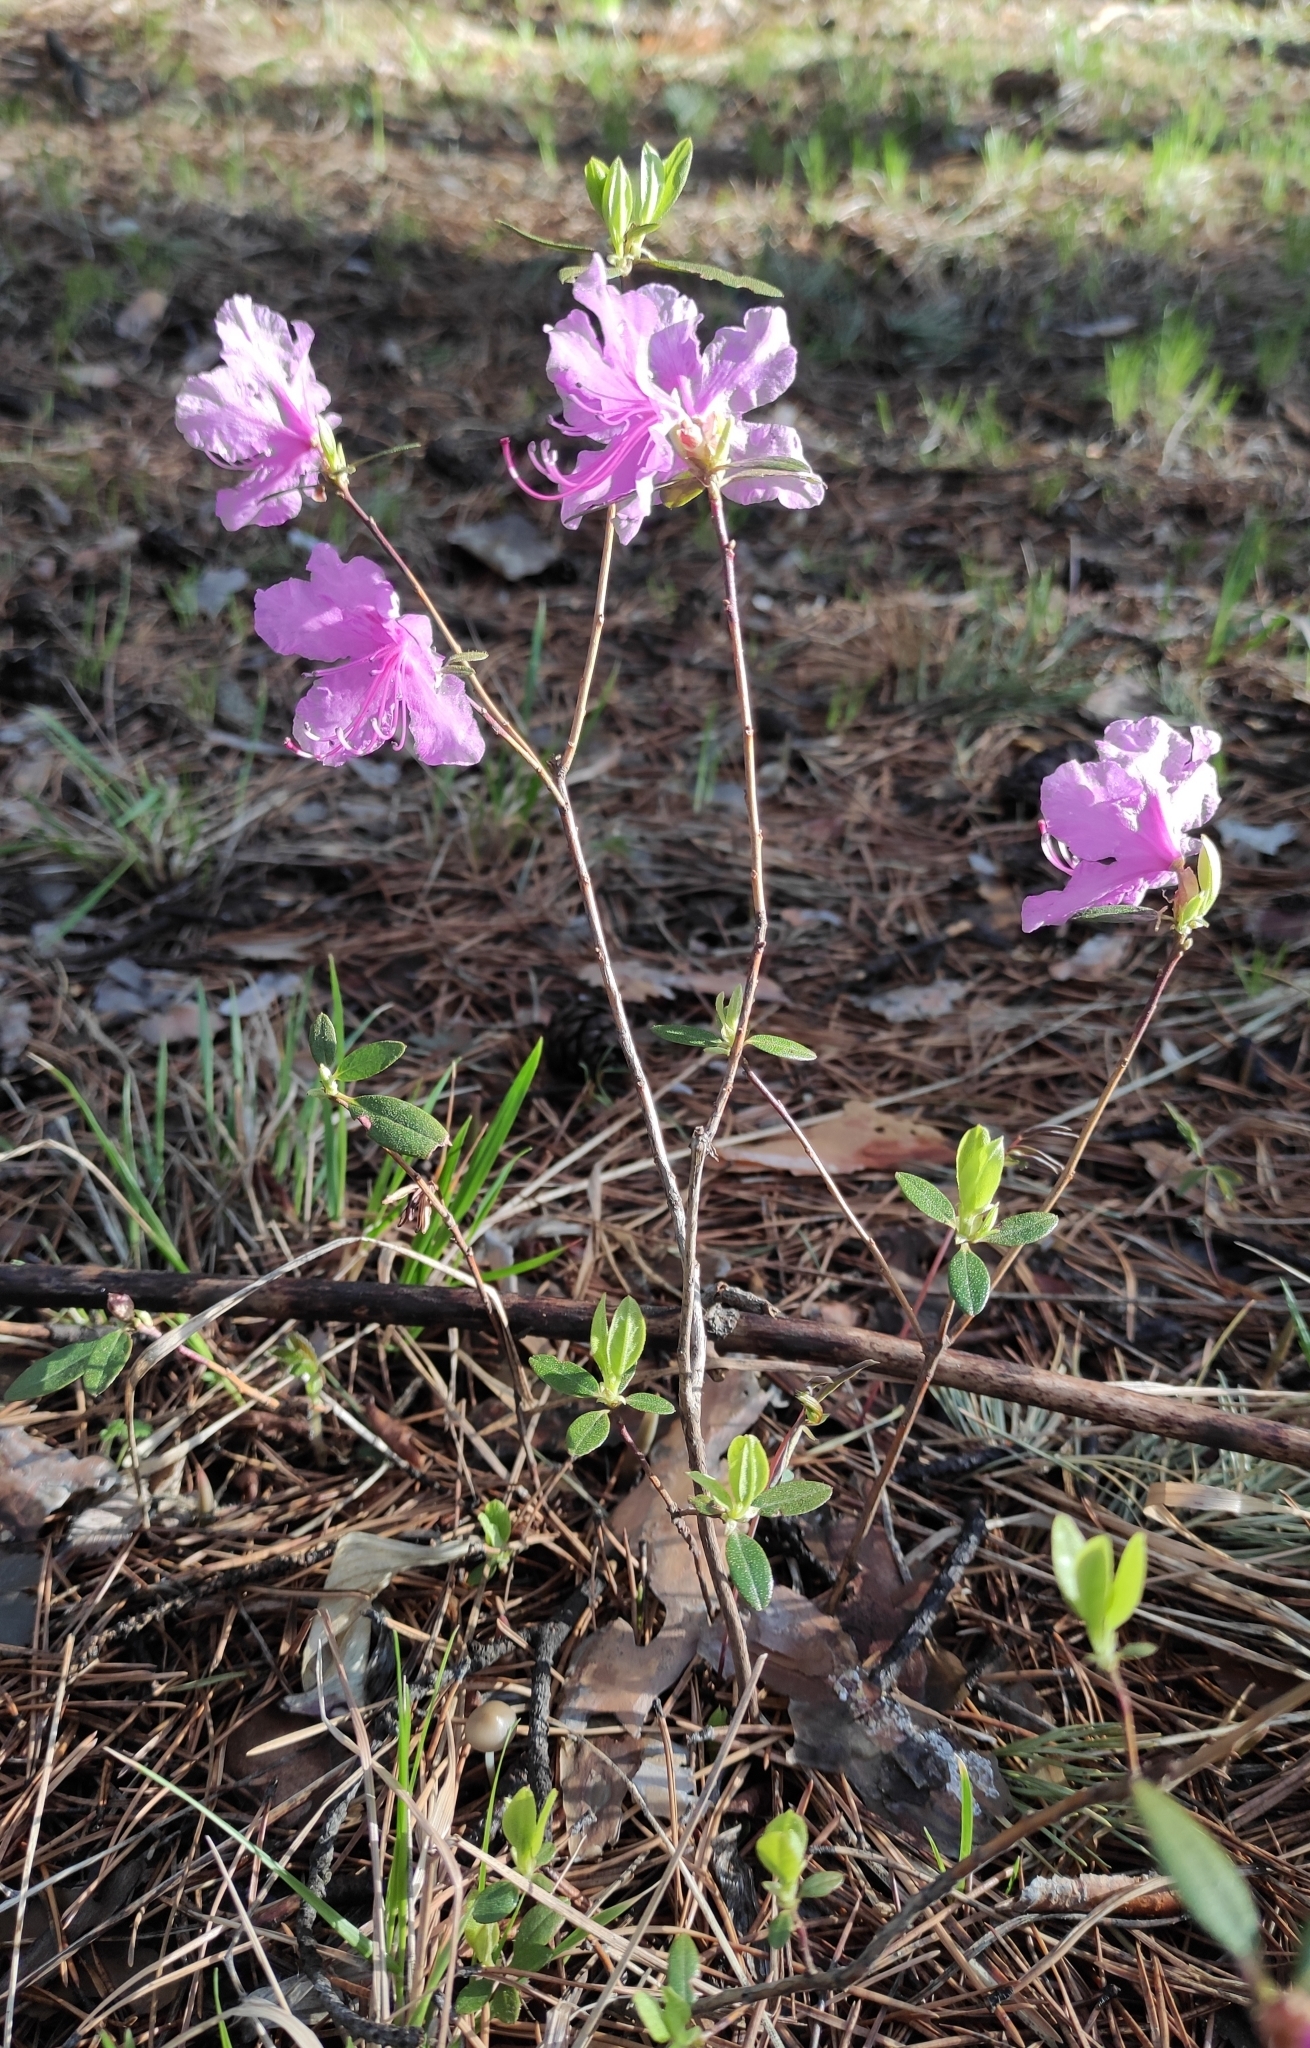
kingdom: Plantae
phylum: Tracheophyta
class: Magnoliopsida
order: Ericales
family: Ericaceae
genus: Rhododendron
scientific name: Rhododendron dauricum
